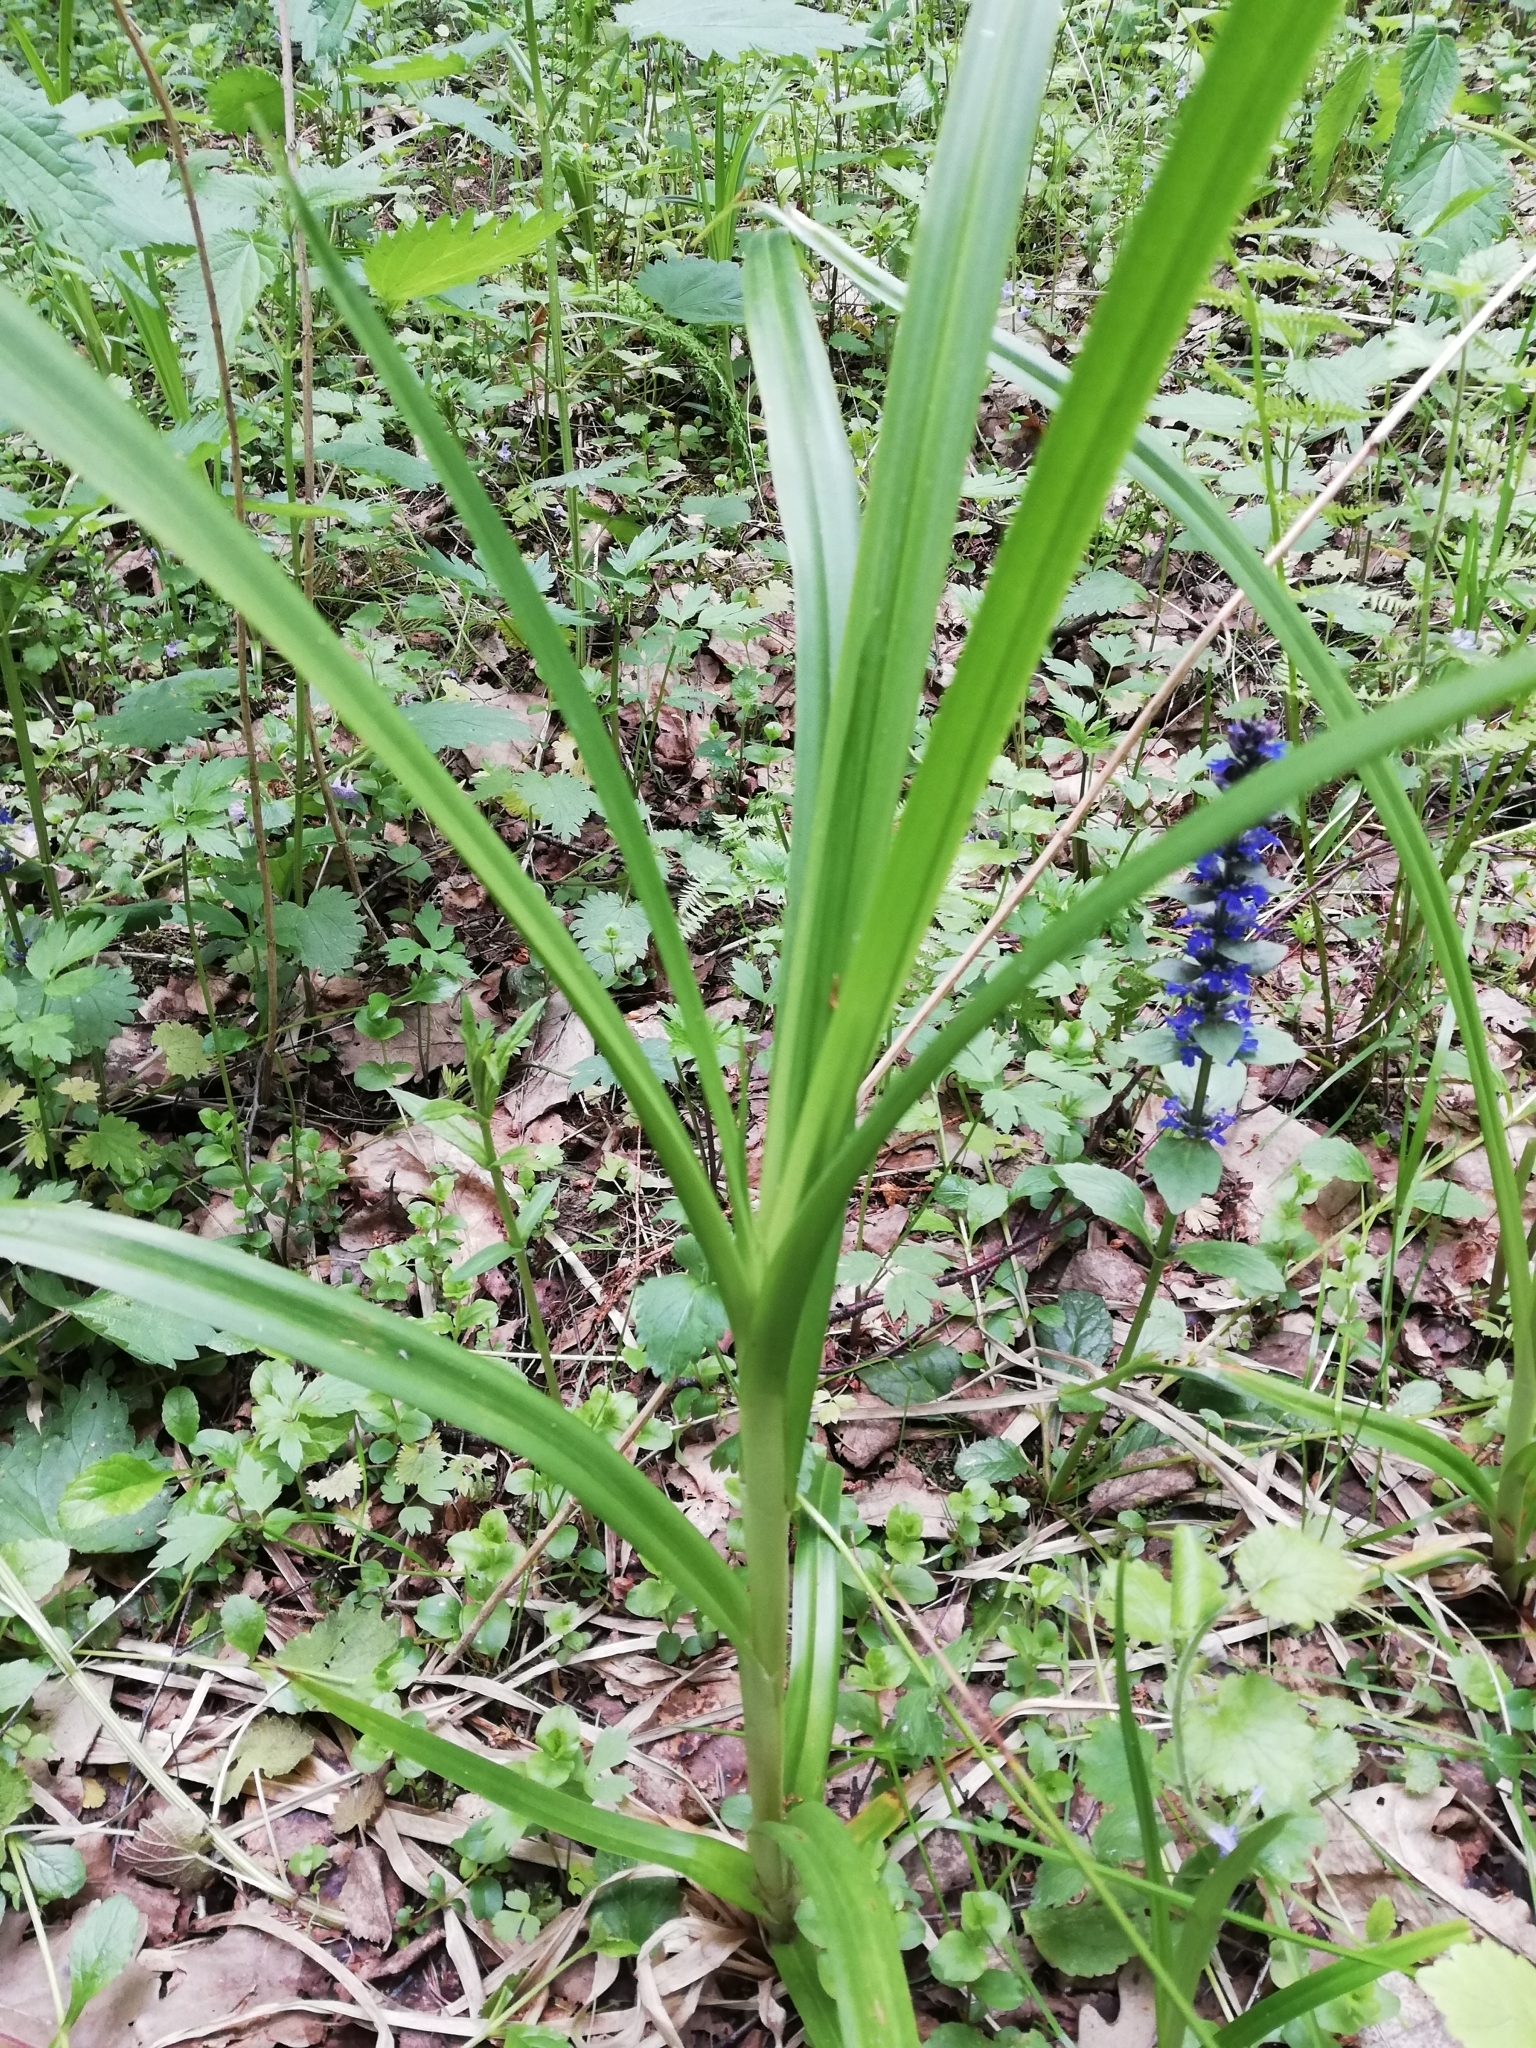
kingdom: Plantae
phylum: Tracheophyta
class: Liliopsida
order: Poales
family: Cyperaceae
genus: Scirpus
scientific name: Scirpus sylvaticus
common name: Wood club-rush
